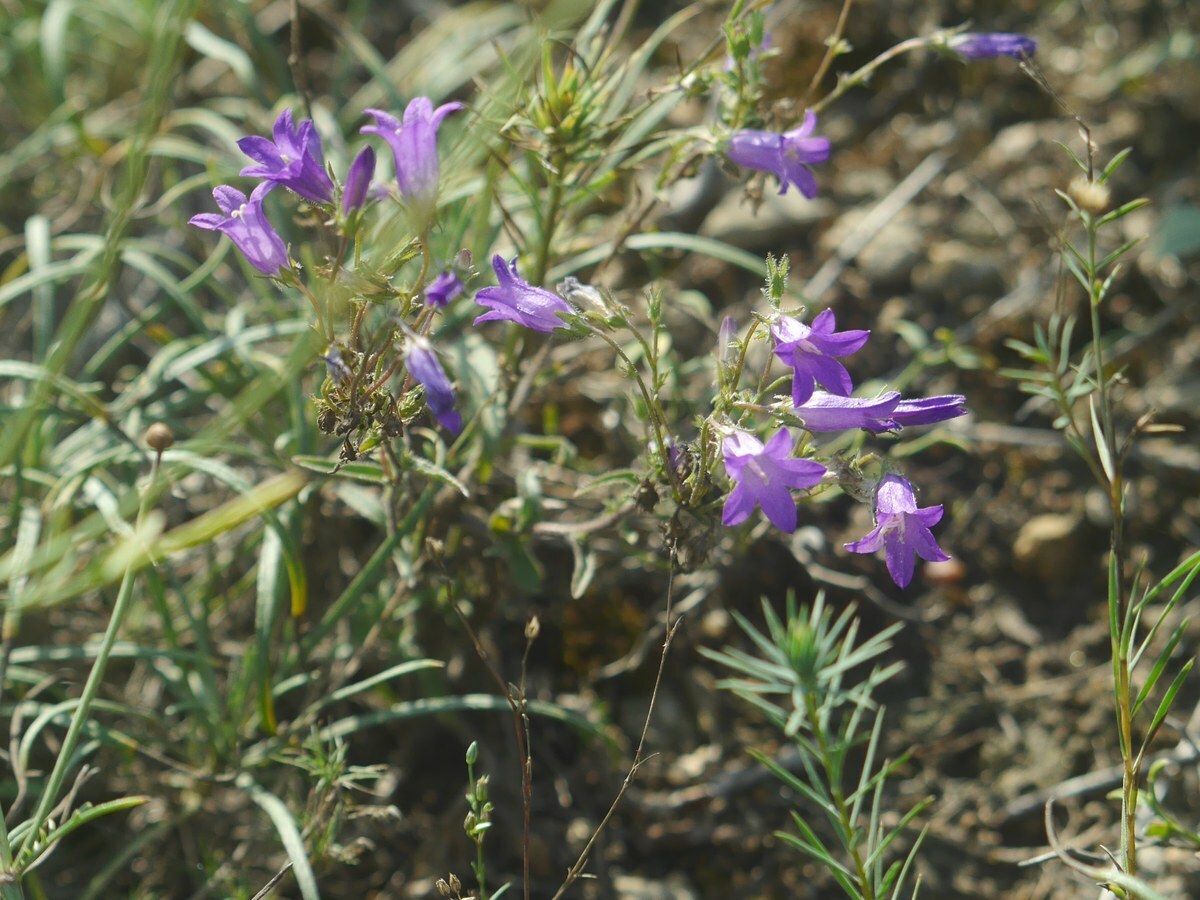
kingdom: Plantae
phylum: Tracheophyta
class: Magnoliopsida
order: Asterales
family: Campanulaceae
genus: Campanula
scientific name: Campanula sibirica
